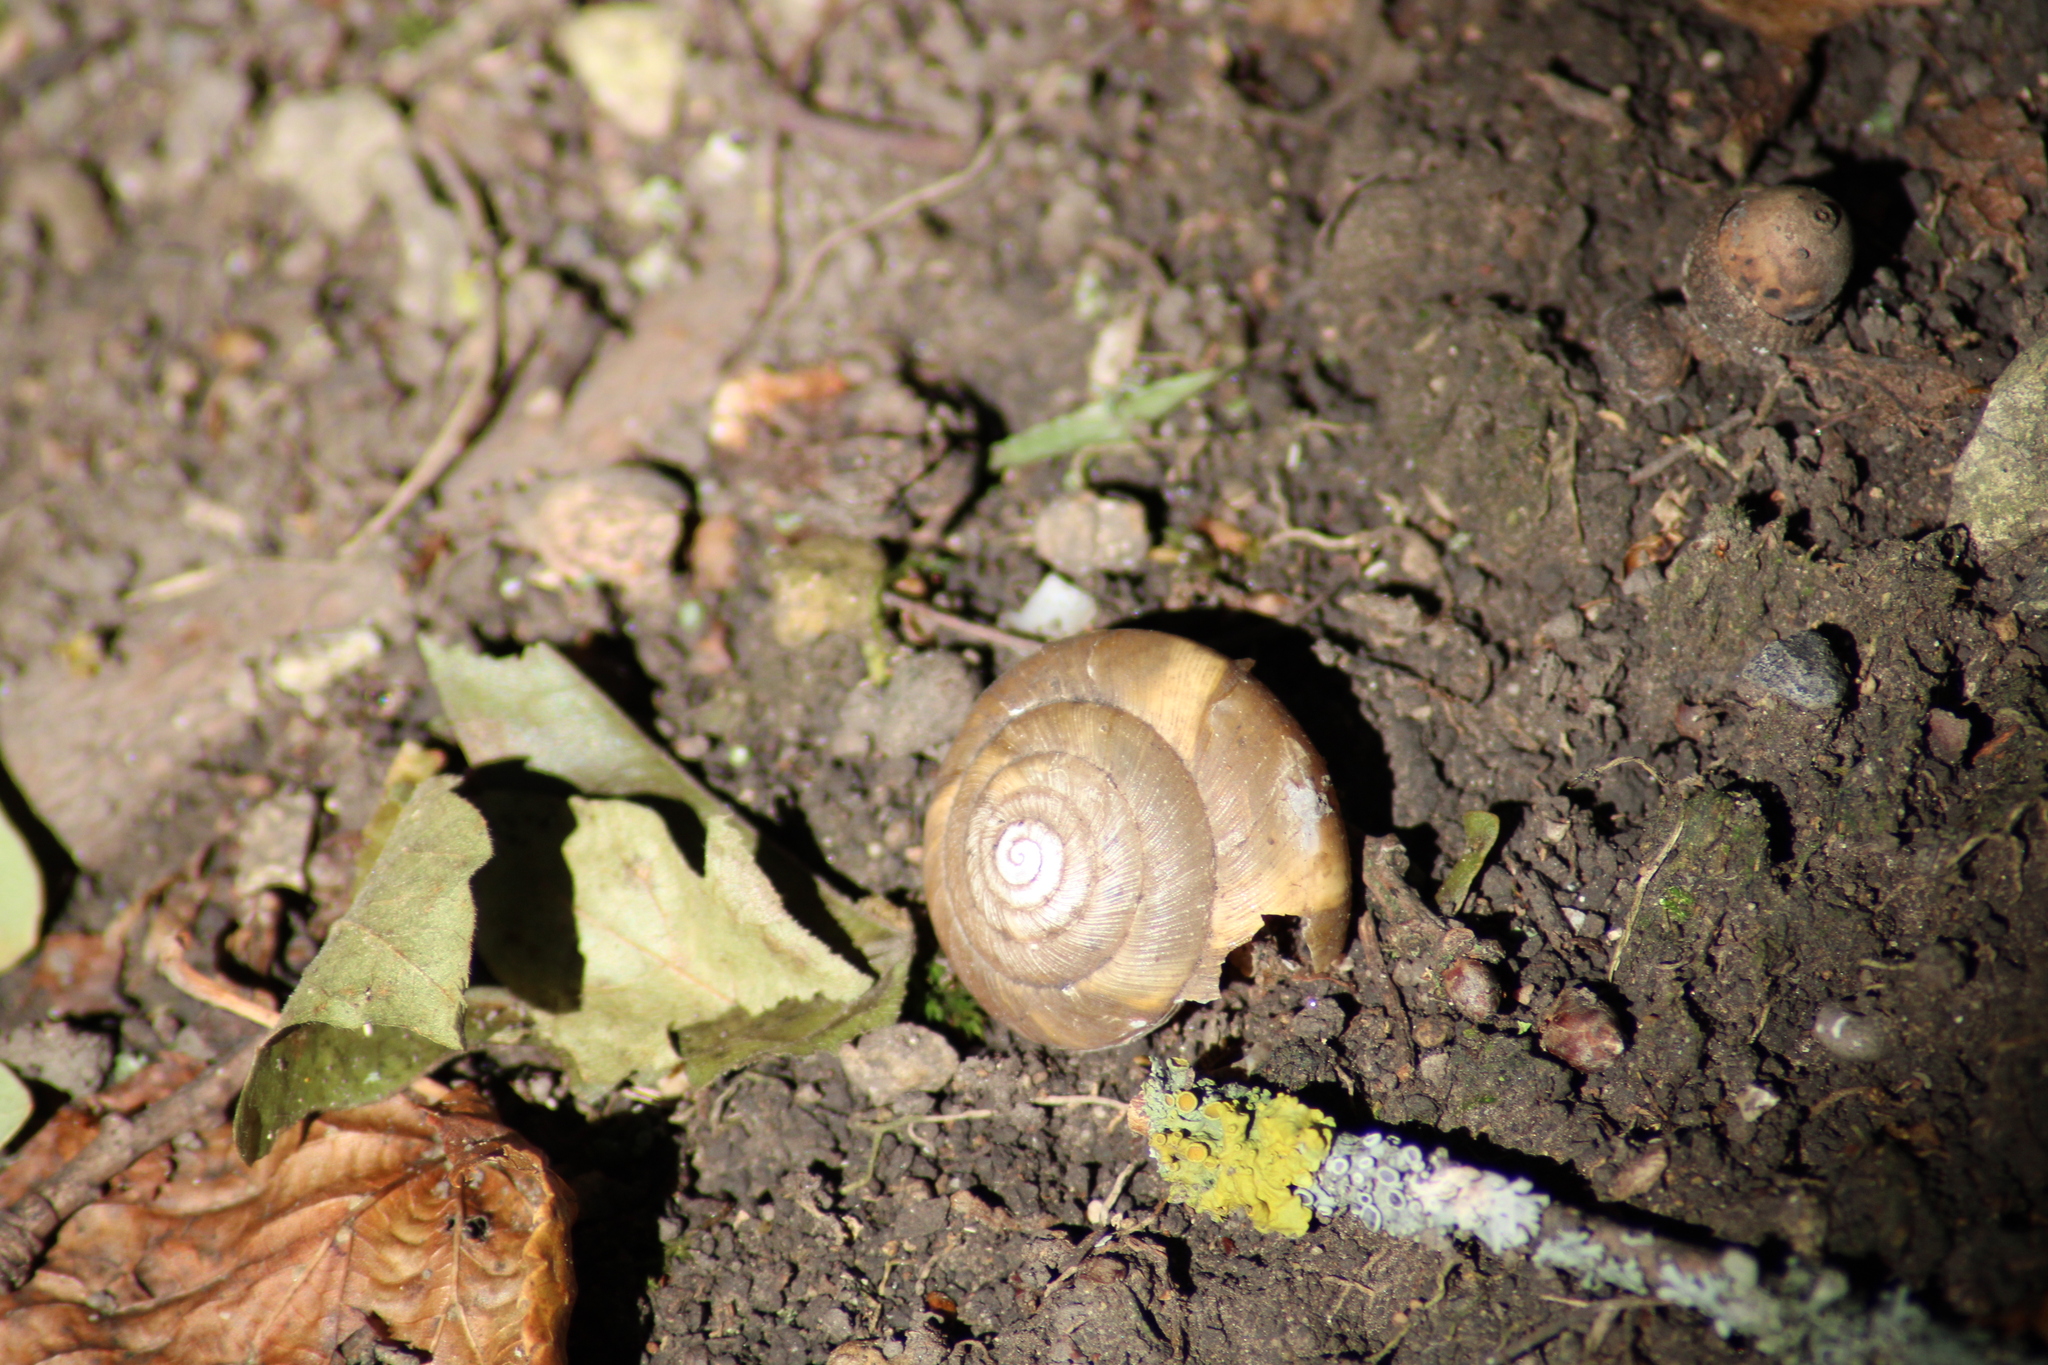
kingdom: Animalia
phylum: Mollusca
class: Gastropoda
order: Stylommatophora
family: Zonitidae
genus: Aegopis
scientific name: Aegopis verticillus
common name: Giant glass snail
